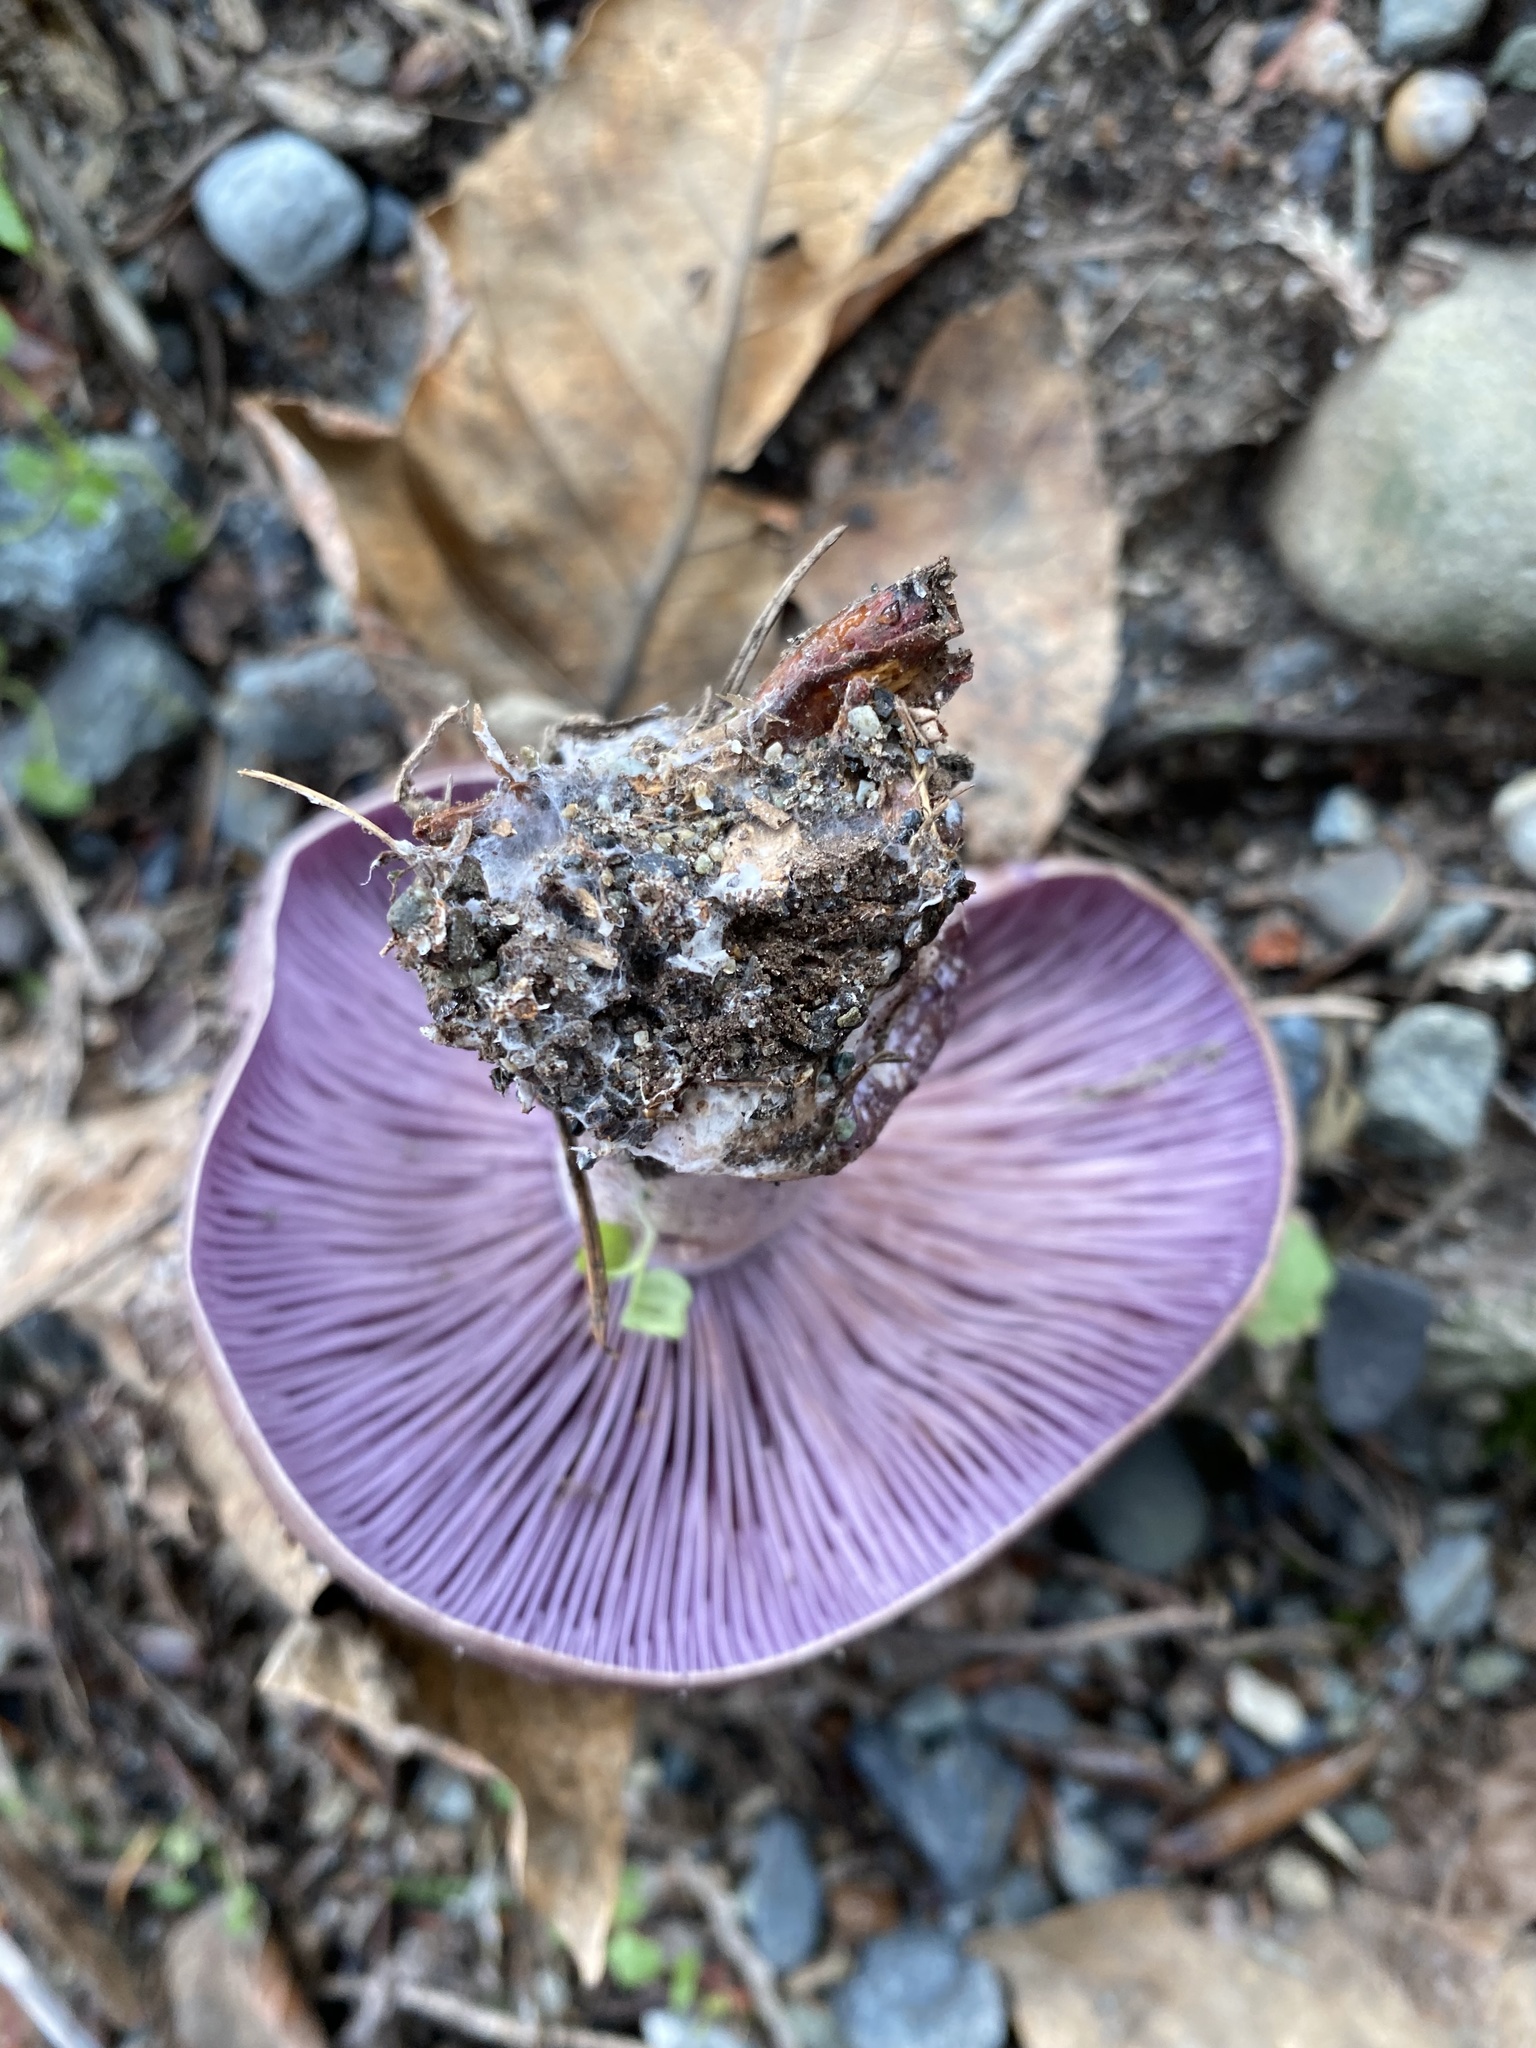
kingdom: Fungi
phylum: Basidiomycota
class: Agaricomycetes
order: Agaricales
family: Tricholomataceae
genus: Collybia
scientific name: Collybia
